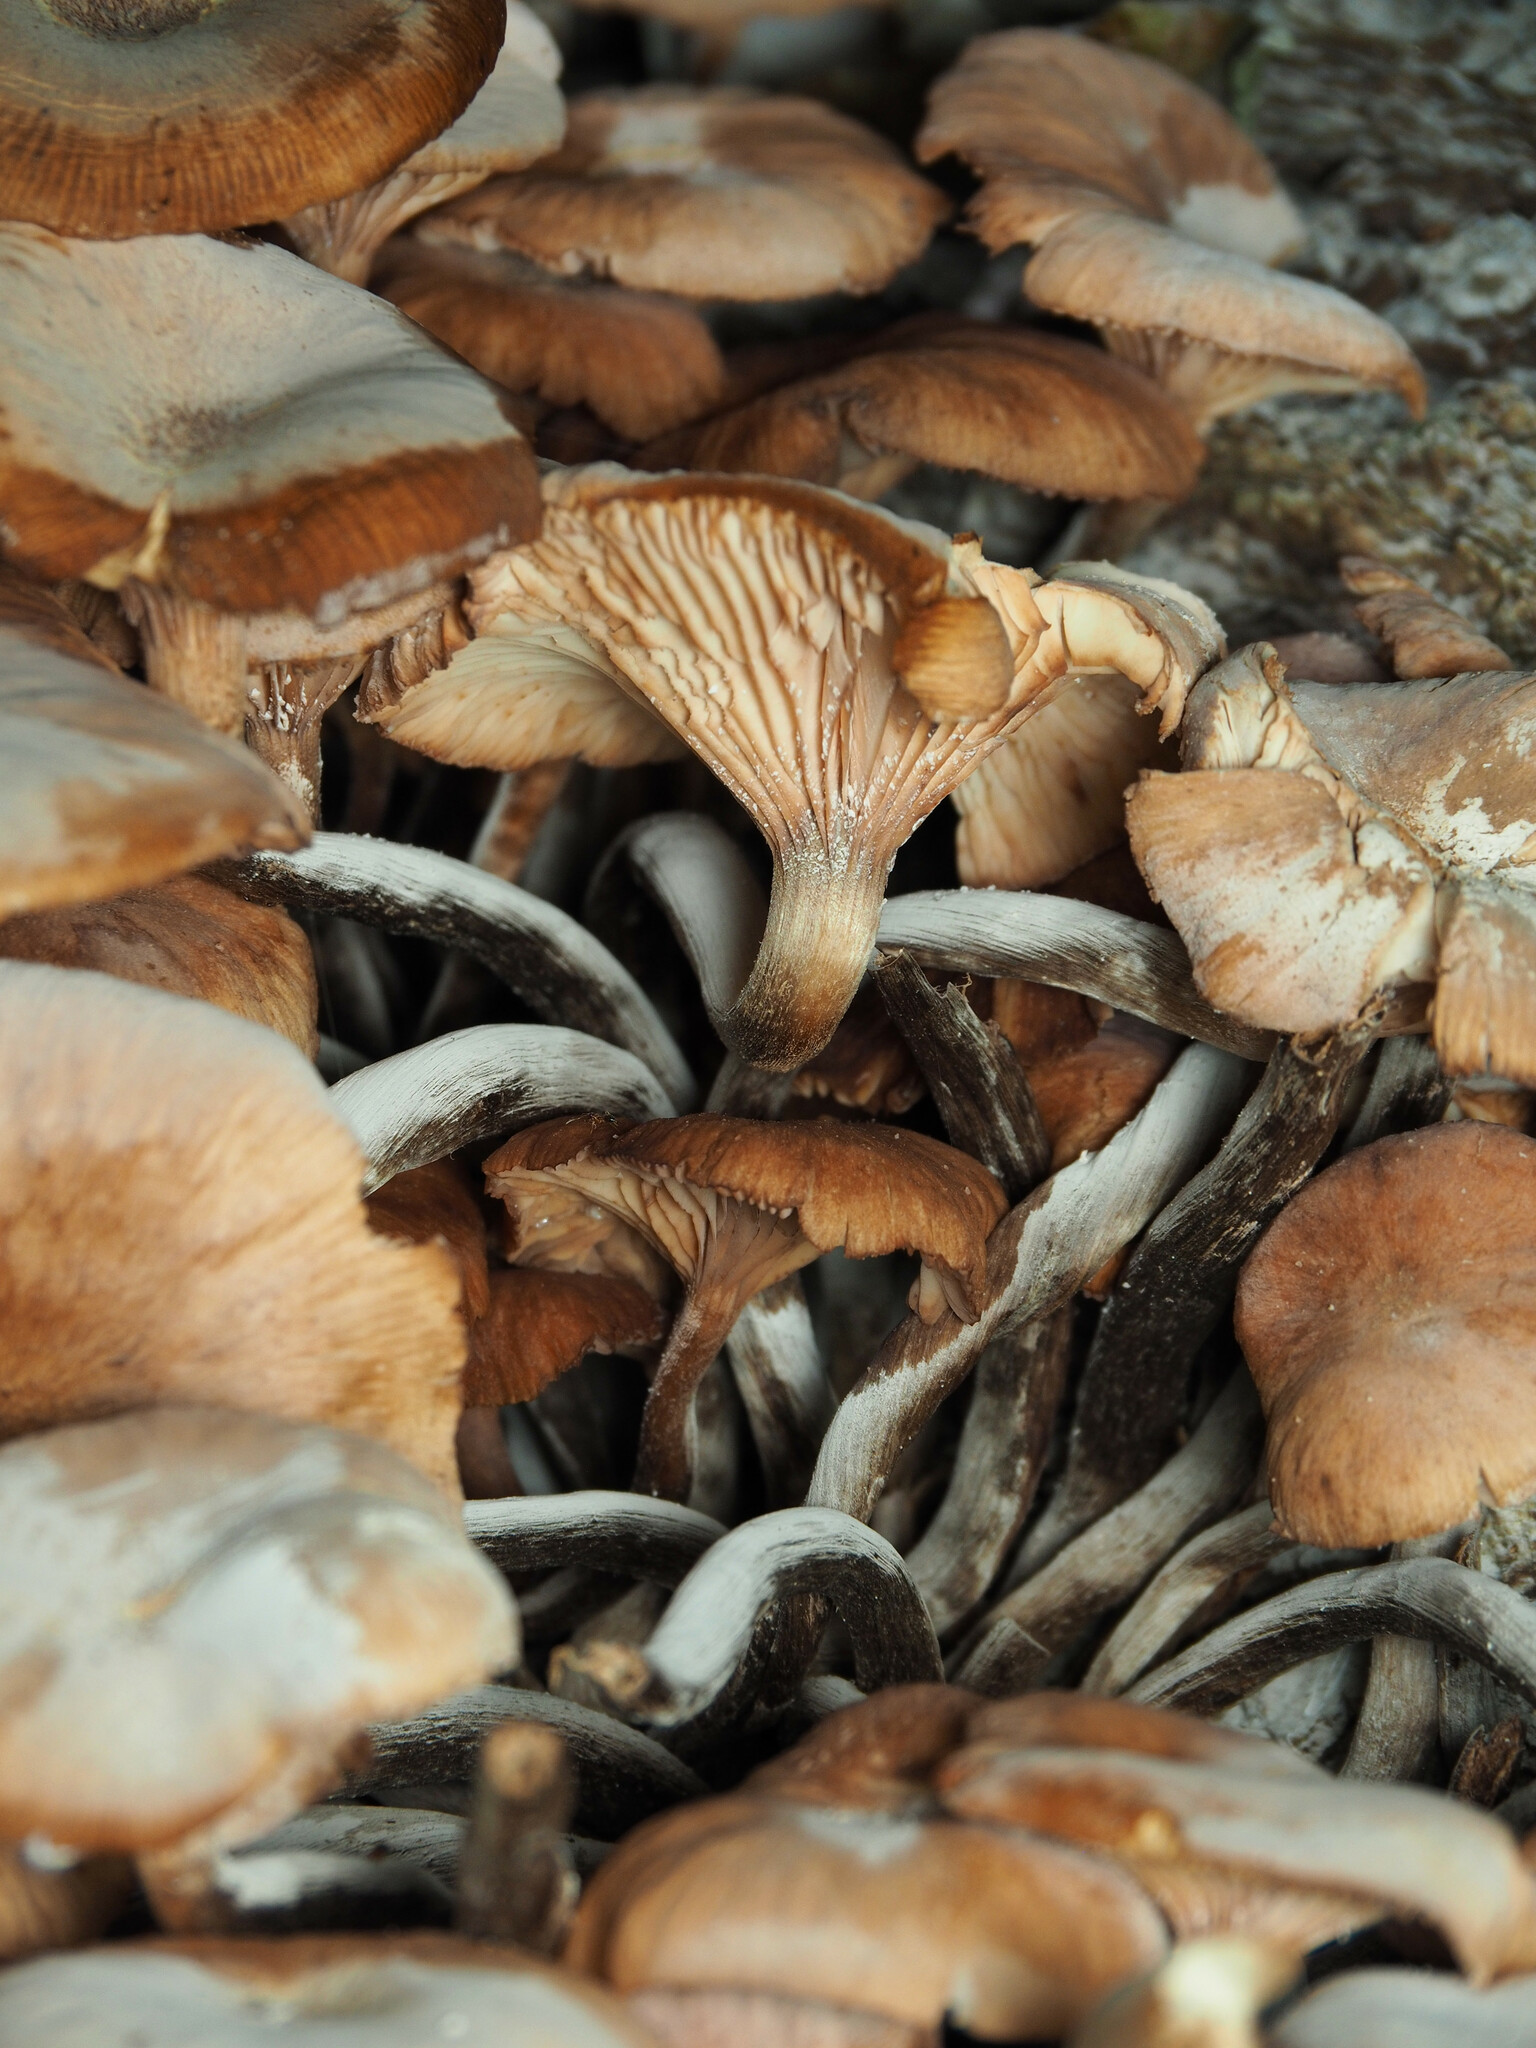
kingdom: Fungi
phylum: Basidiomycota
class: Agaricomycetes
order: Agaricales
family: Physalacriaceae
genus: Desarmillaria
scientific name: Desarmillaria caespitosa
